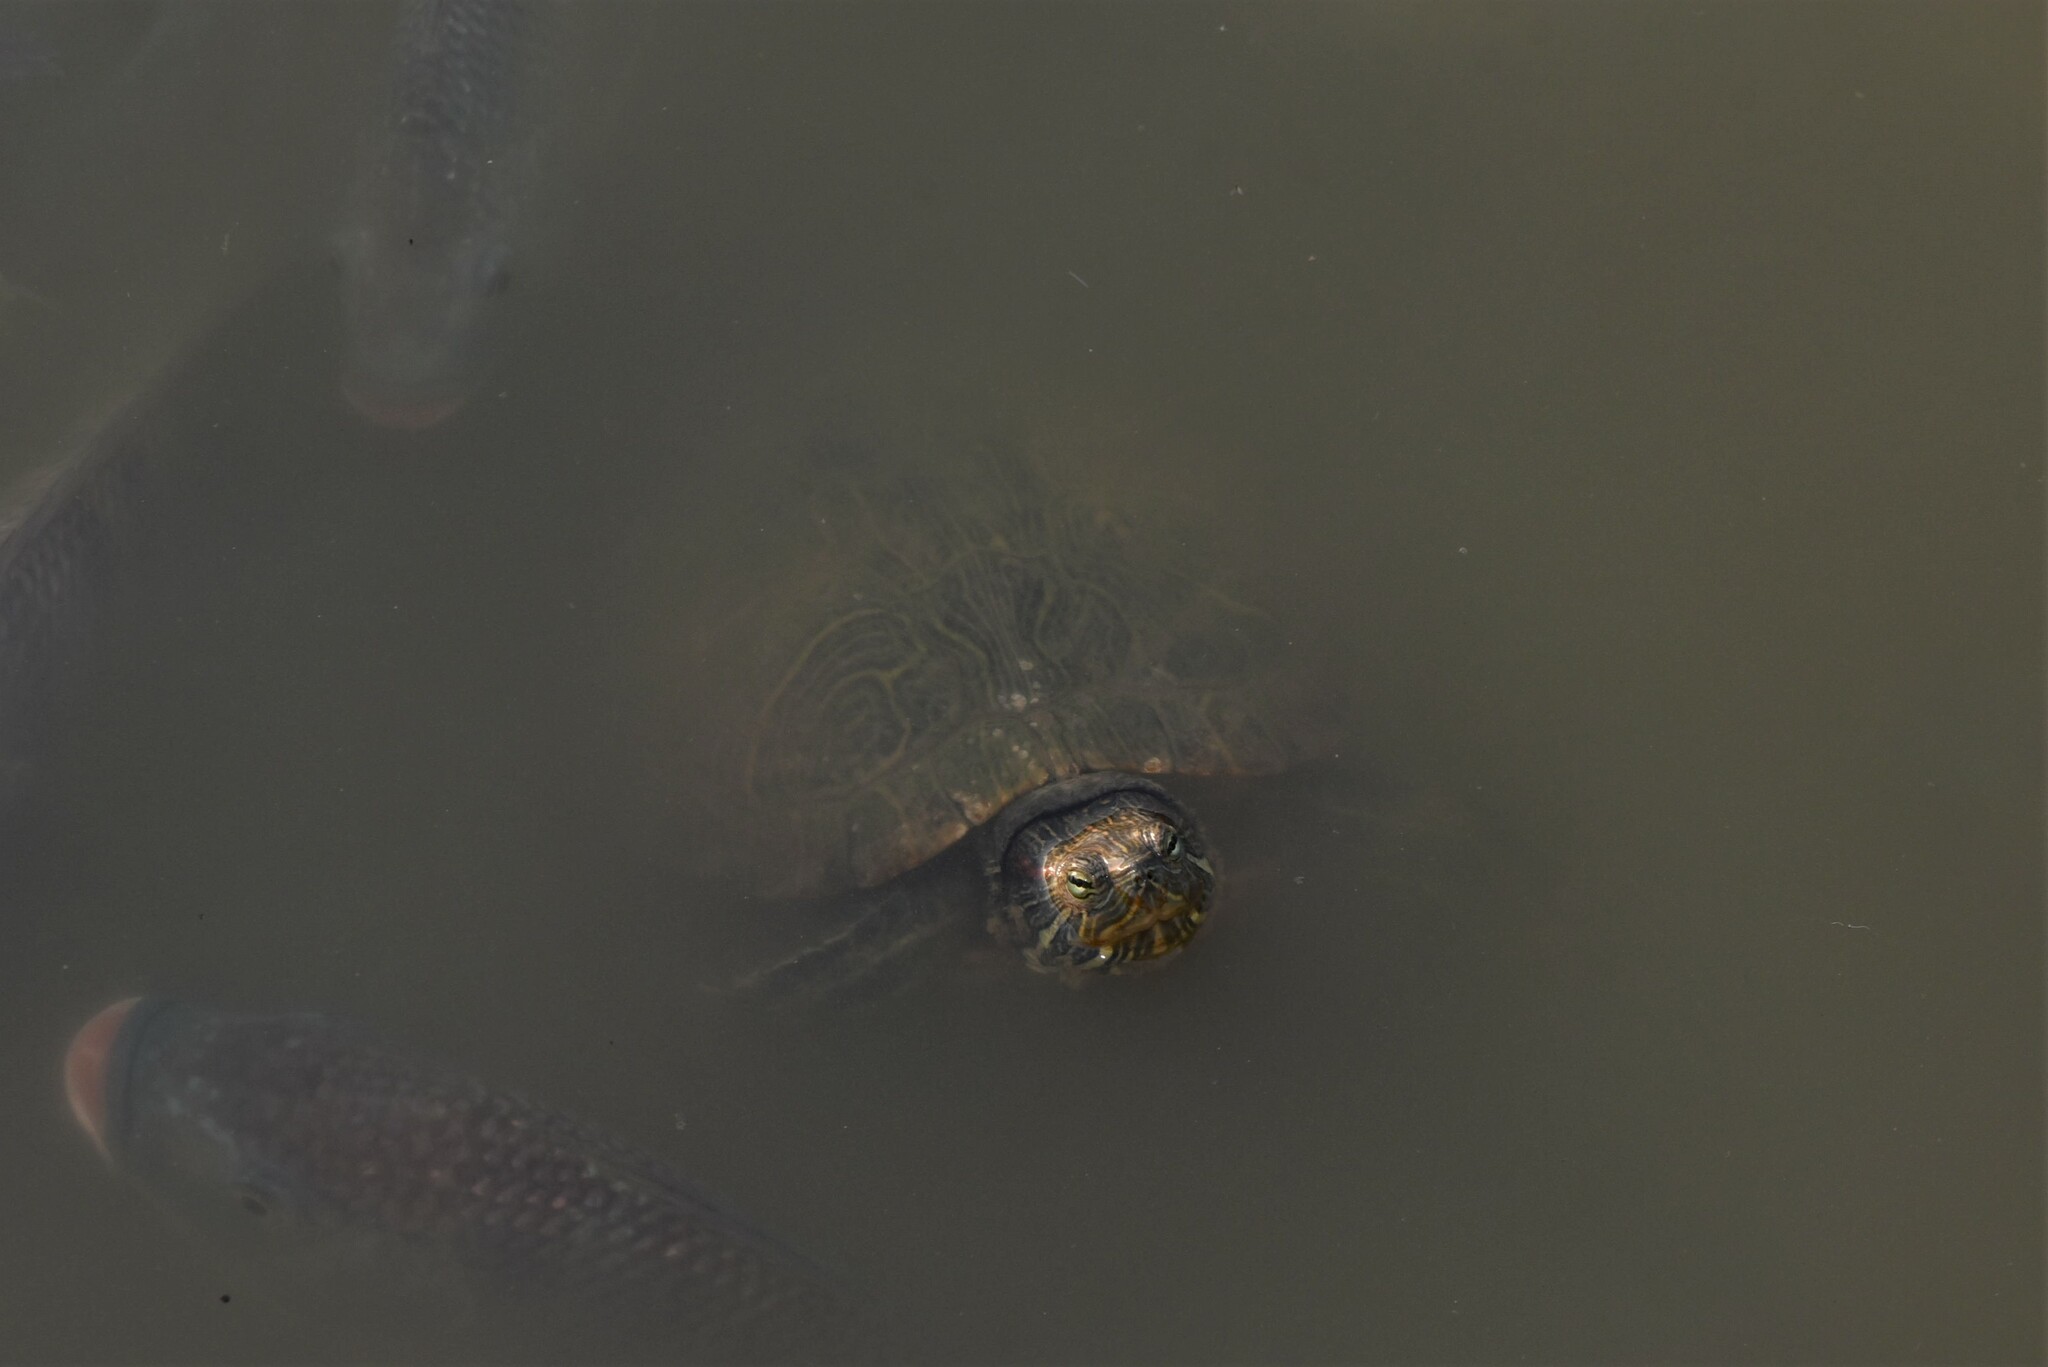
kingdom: Animalia
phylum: Chordata
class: Testudines
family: Emydidae
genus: Trachemys
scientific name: Trachemys scripta
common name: Slider
